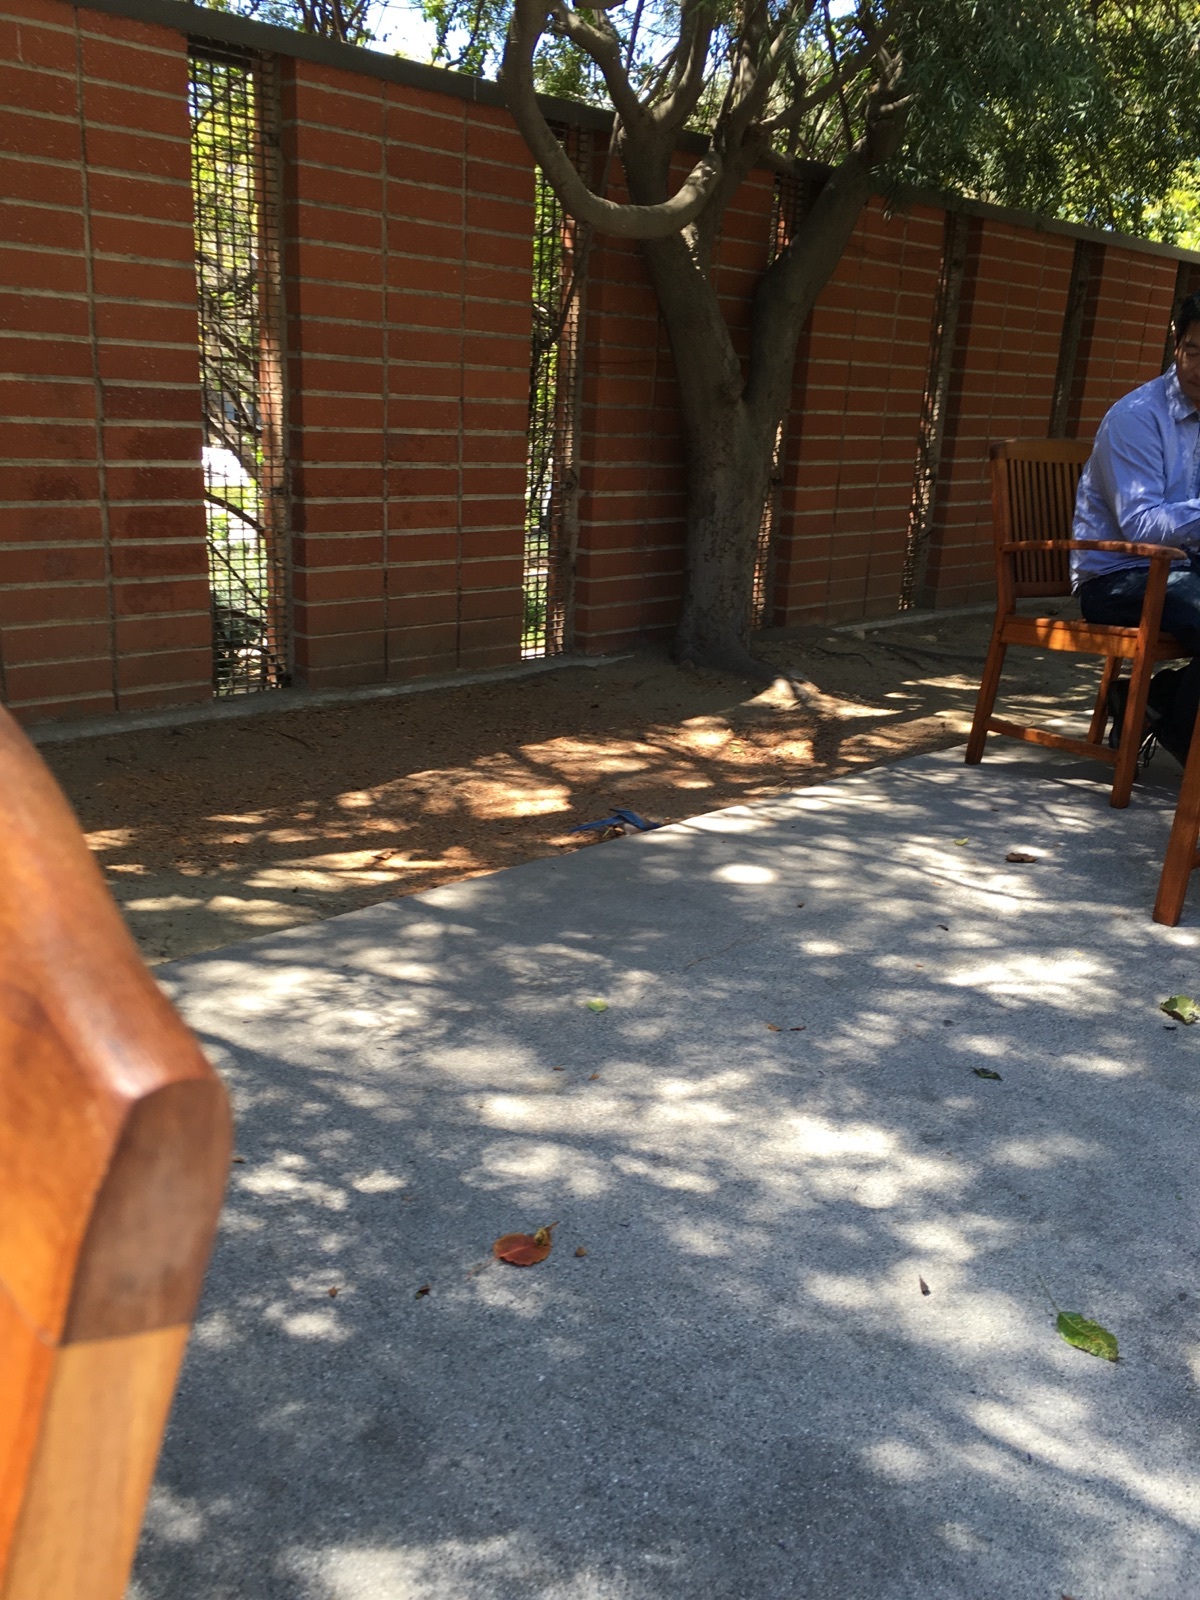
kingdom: Animalia
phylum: Chordata
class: Aves
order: Passeriformes
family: Corvidae
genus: Aphelocoma
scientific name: Aphelocoma californica
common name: California scrub-jay
